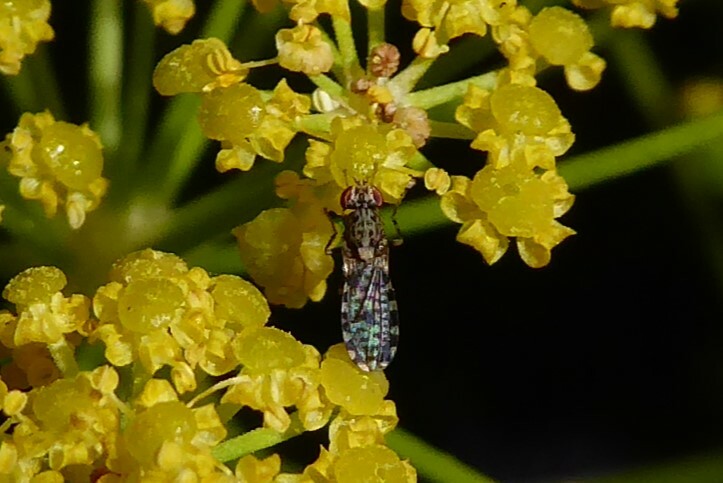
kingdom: Animalia
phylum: Arthropoda
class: Insecta
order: Diptera
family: Heleomyzidae
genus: Xeneura
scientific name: Xeneura picata
